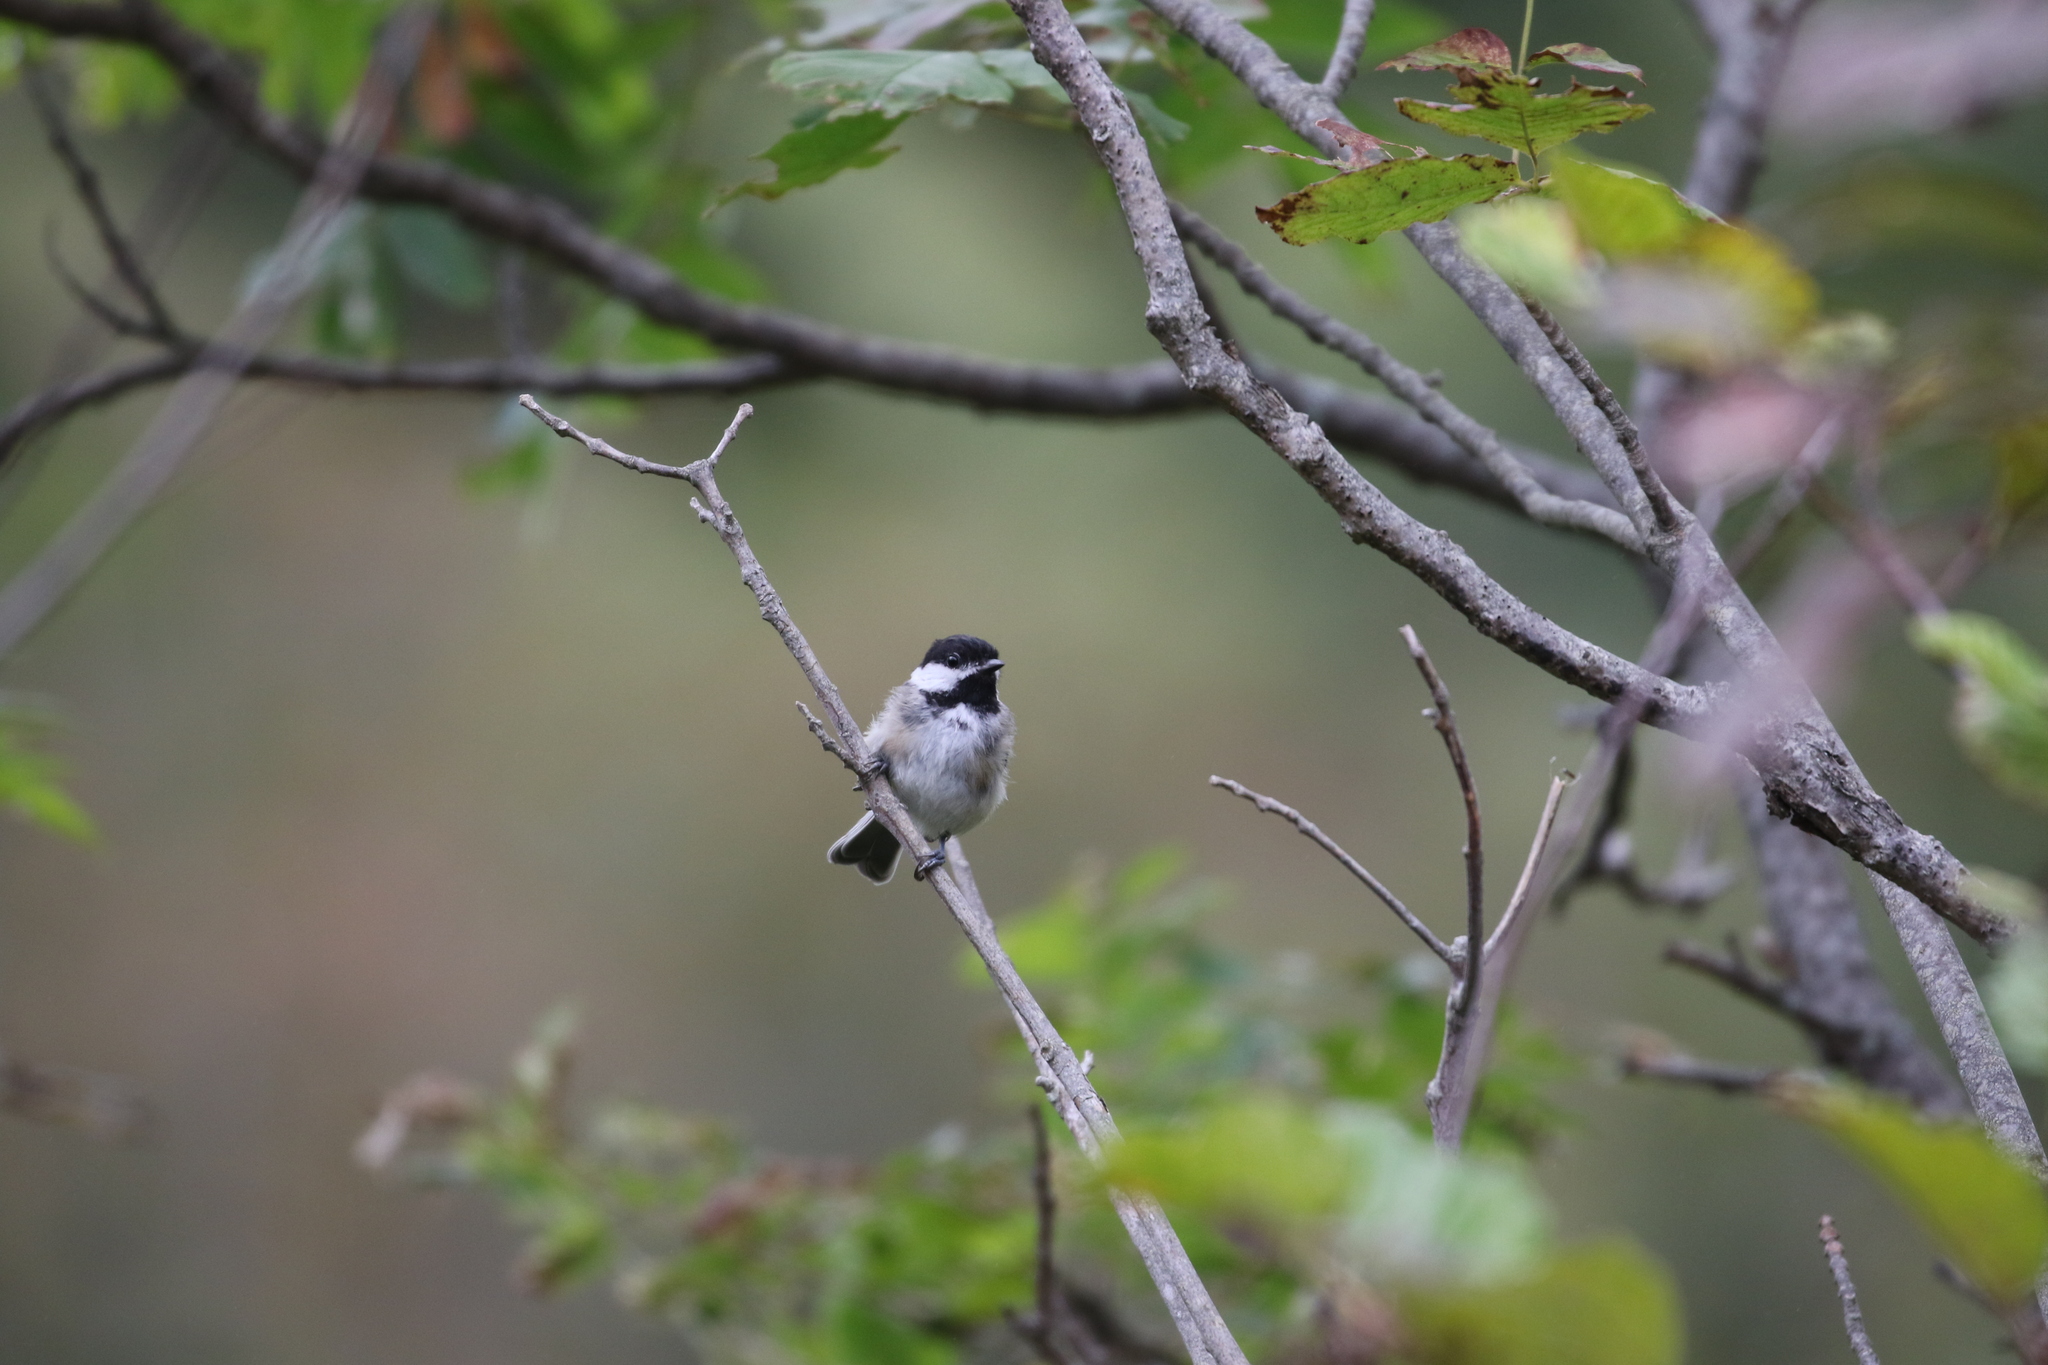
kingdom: Animalia
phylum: Chordata
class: Aves
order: Passeriformes
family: Paridae
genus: Poecile
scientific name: Poecile atricapillus
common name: Black-capped chickadee
